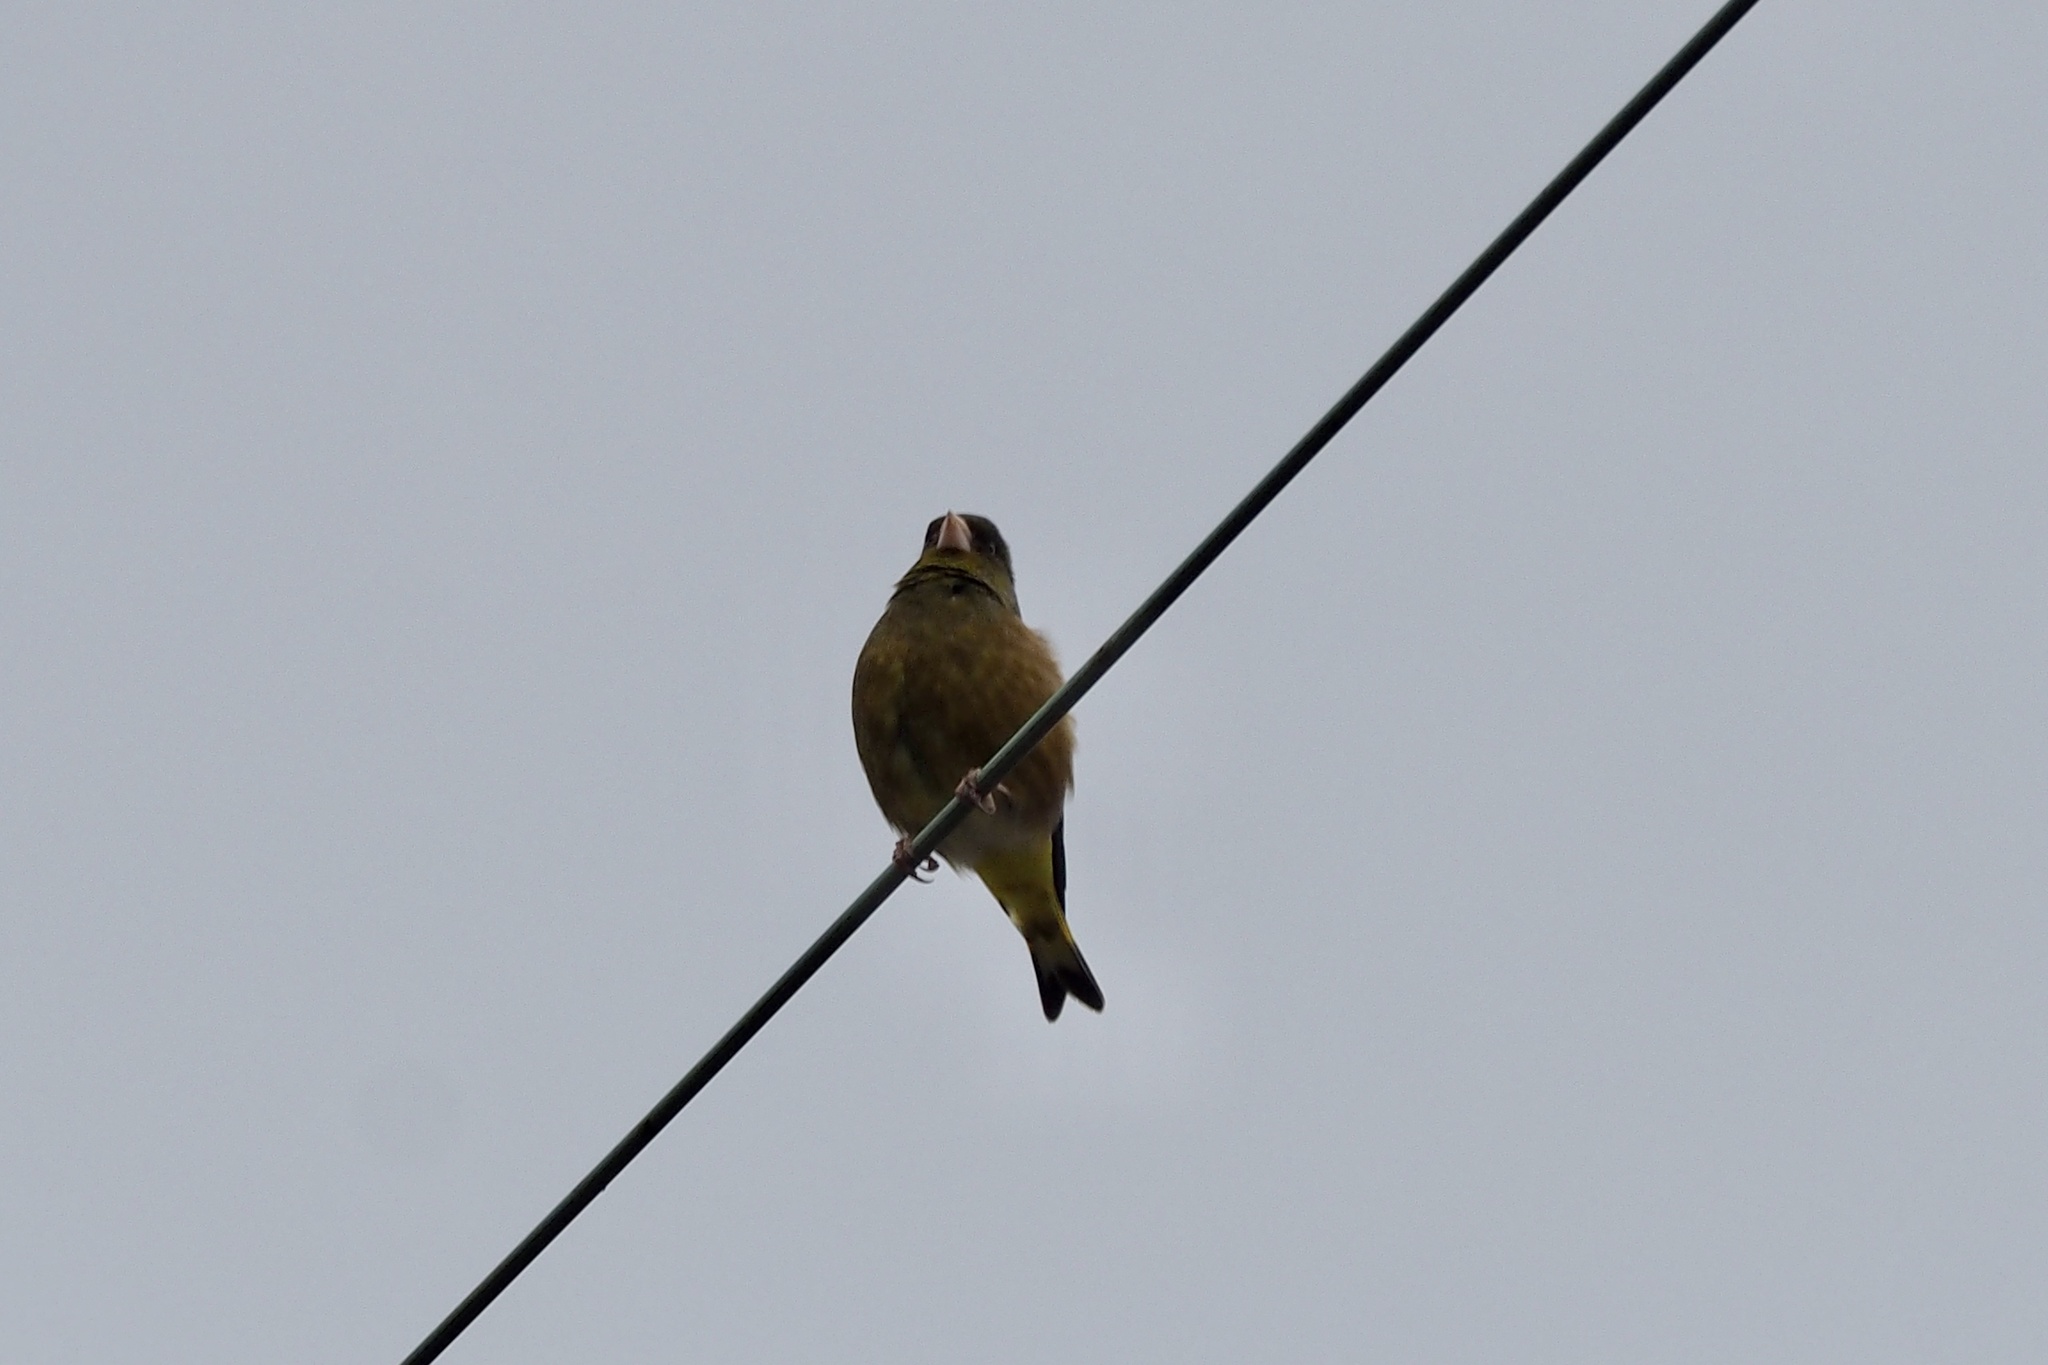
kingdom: Plantae
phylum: Tracheophyta
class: Liliopsida
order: Poales
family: Poaceae
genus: Chloris
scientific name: Chloris sinica
